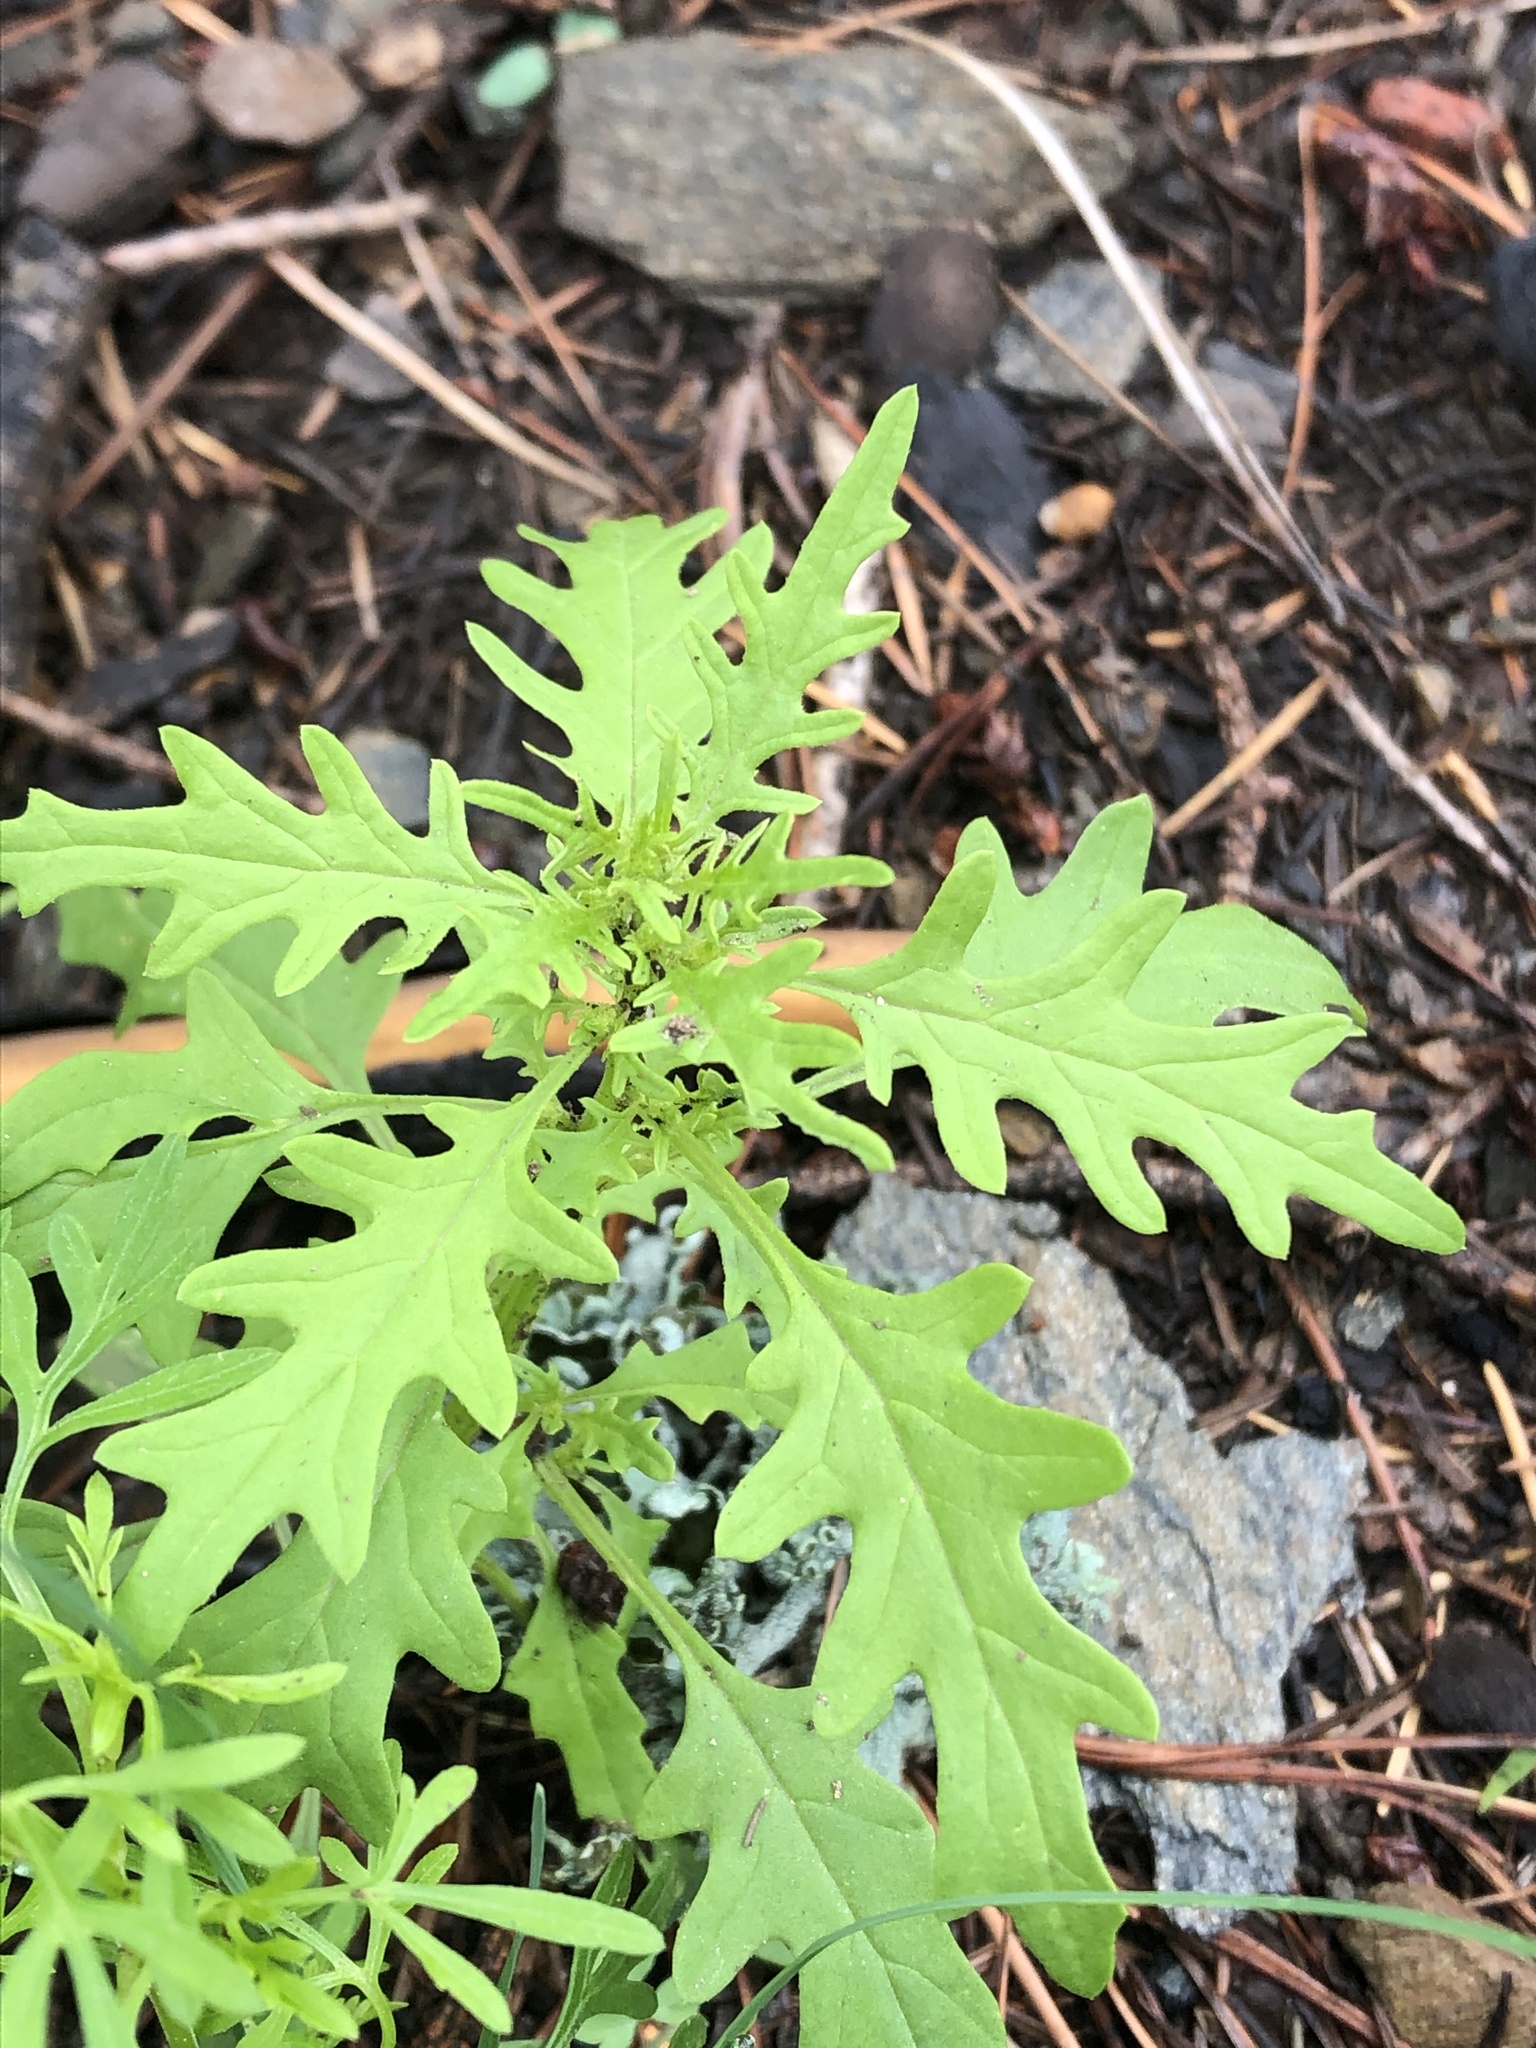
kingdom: Plantae
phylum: Tracheophyta
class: Magnoliopsida
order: Caryophyllales
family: Amaranthaceae
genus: Dysphania
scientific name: Dysphania incisa
